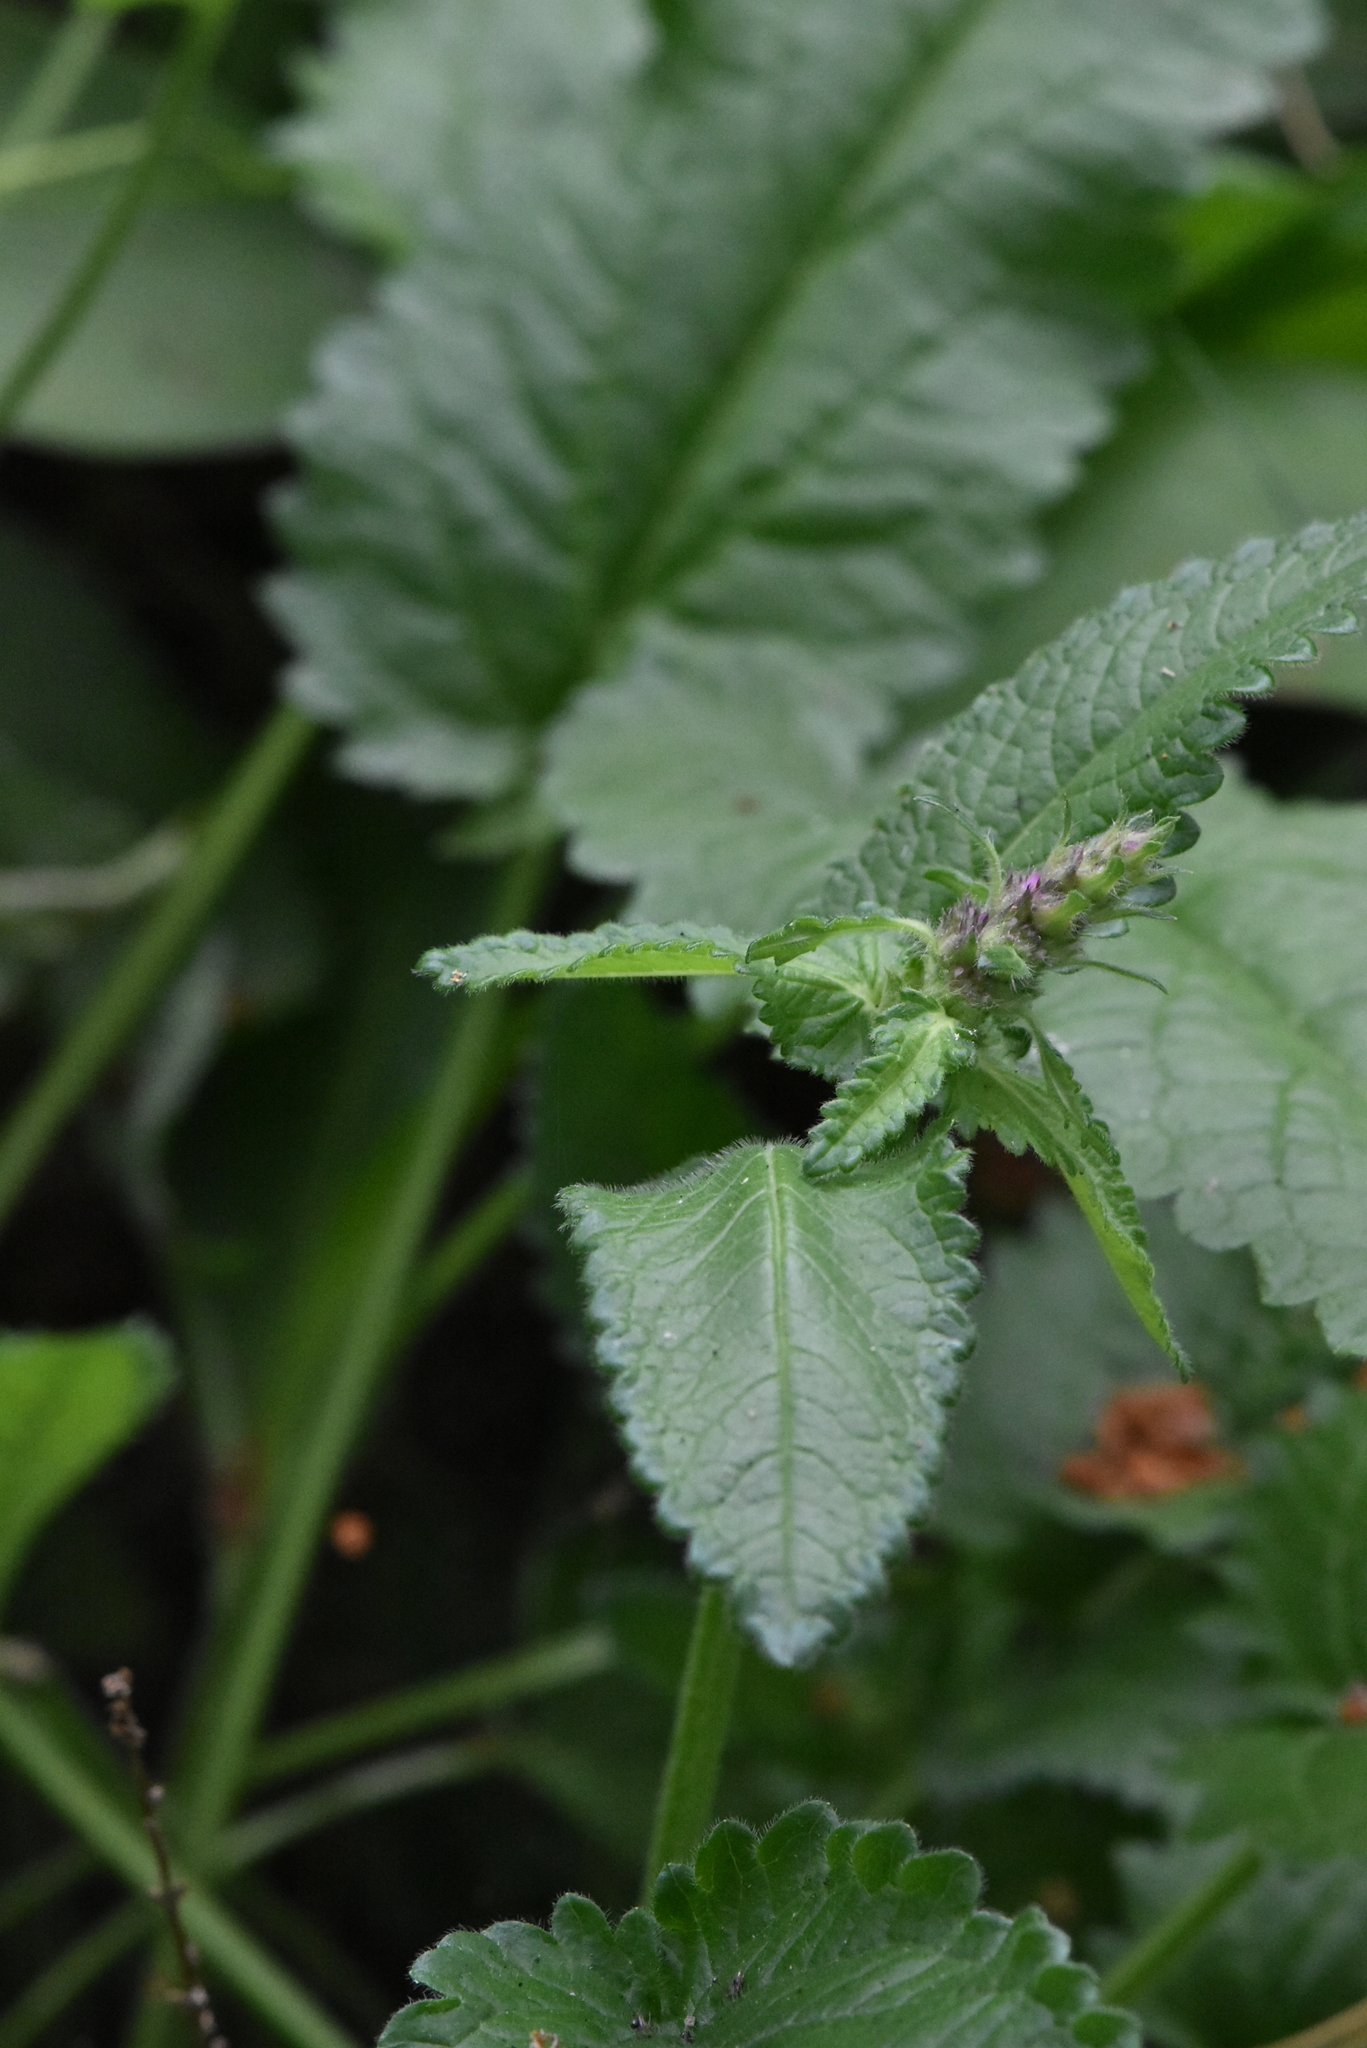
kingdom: Plantae
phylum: Tracheophyta
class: Magnoliopsida
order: Lamiales
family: Lamiaceae
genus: Betonica
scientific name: Betonica officinalis
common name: Bishop's-wort
